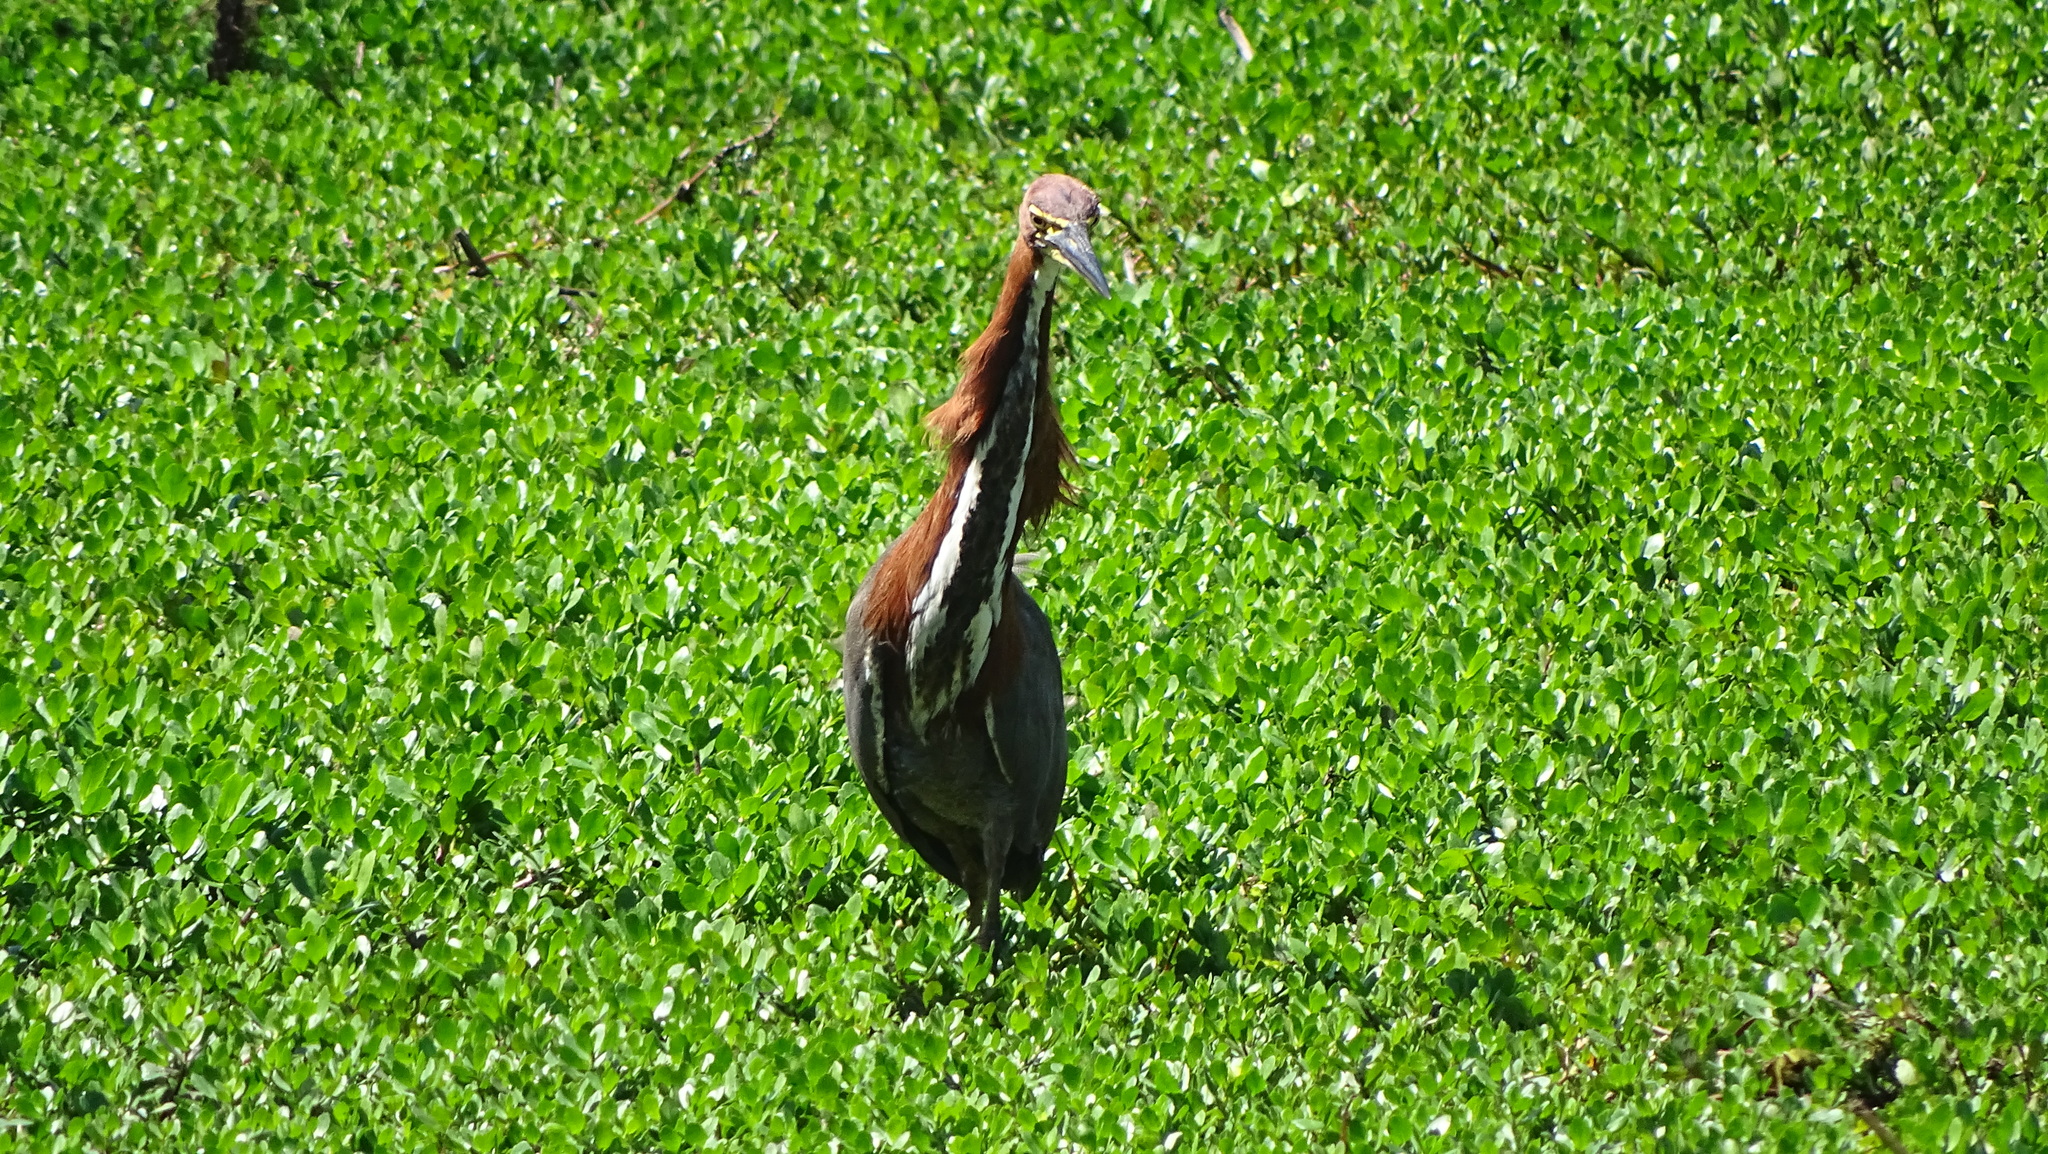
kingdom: Animalia
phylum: Chordata
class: Aves
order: Pelecaniformes
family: Ardeidae
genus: Tigrisoma
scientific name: Tigrisoma lineatum
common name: Rufescent tiger-heron
